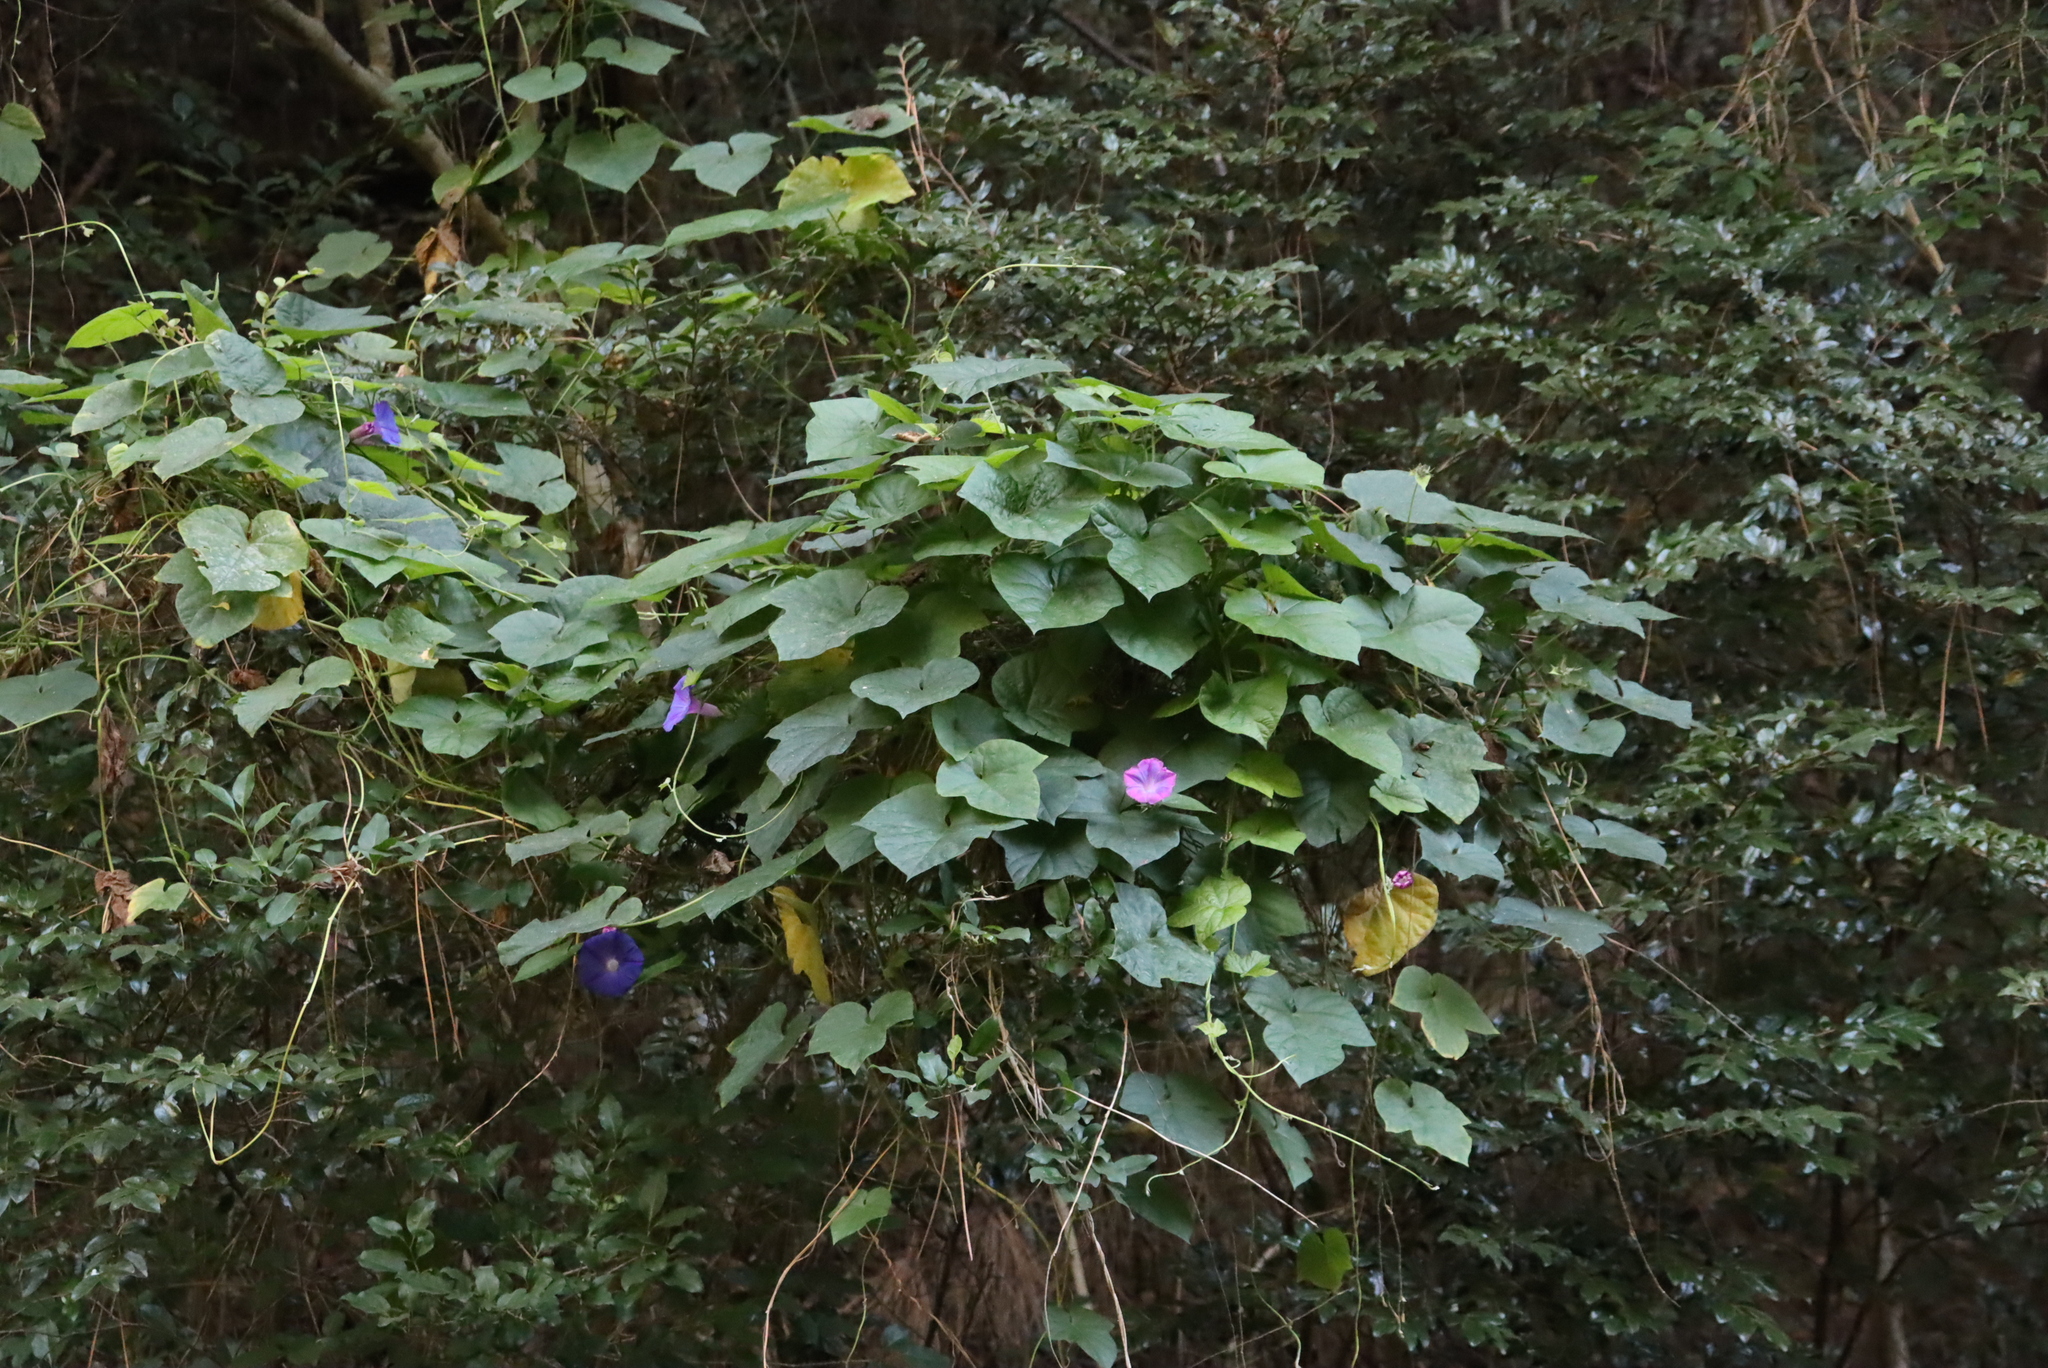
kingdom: Plantae
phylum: Tracheophyta
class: Magnoliopsida
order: Solanales
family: Convolvulaceae
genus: Ipomoea
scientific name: Ipomoea indica
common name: Blue dawnflower
